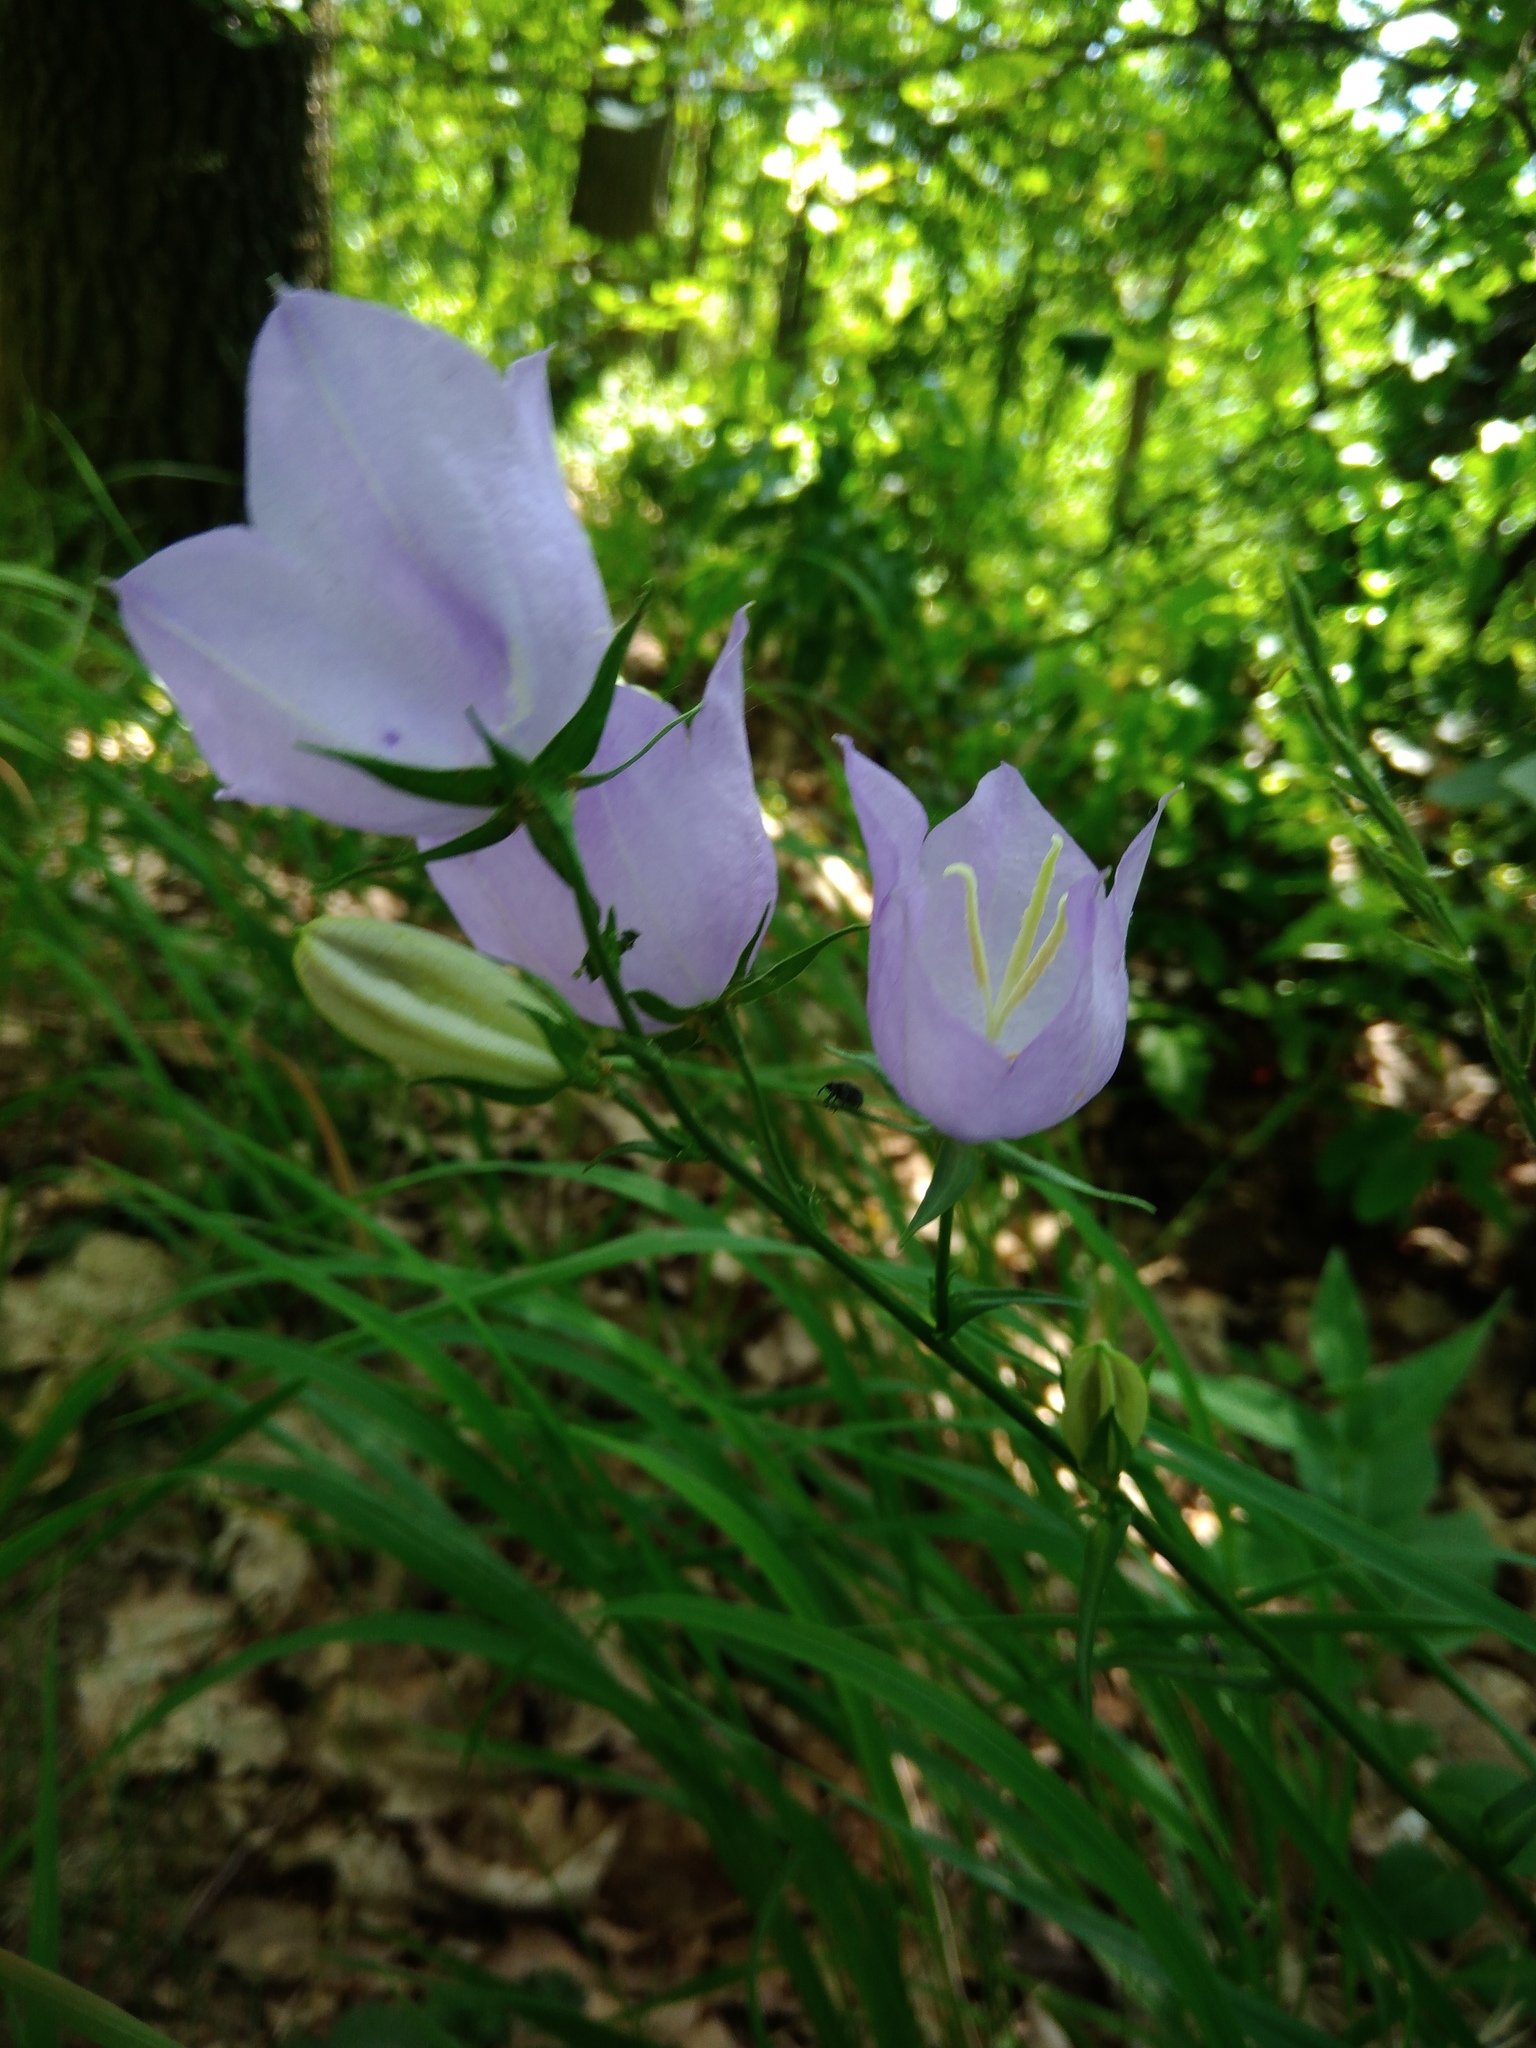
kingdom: Plantae
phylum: Tracheophyta
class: Magnoliopsida
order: Asterales
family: Campanulaceae
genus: Campanula
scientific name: Campanula persicifolia
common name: Peach-leaved bellflower
